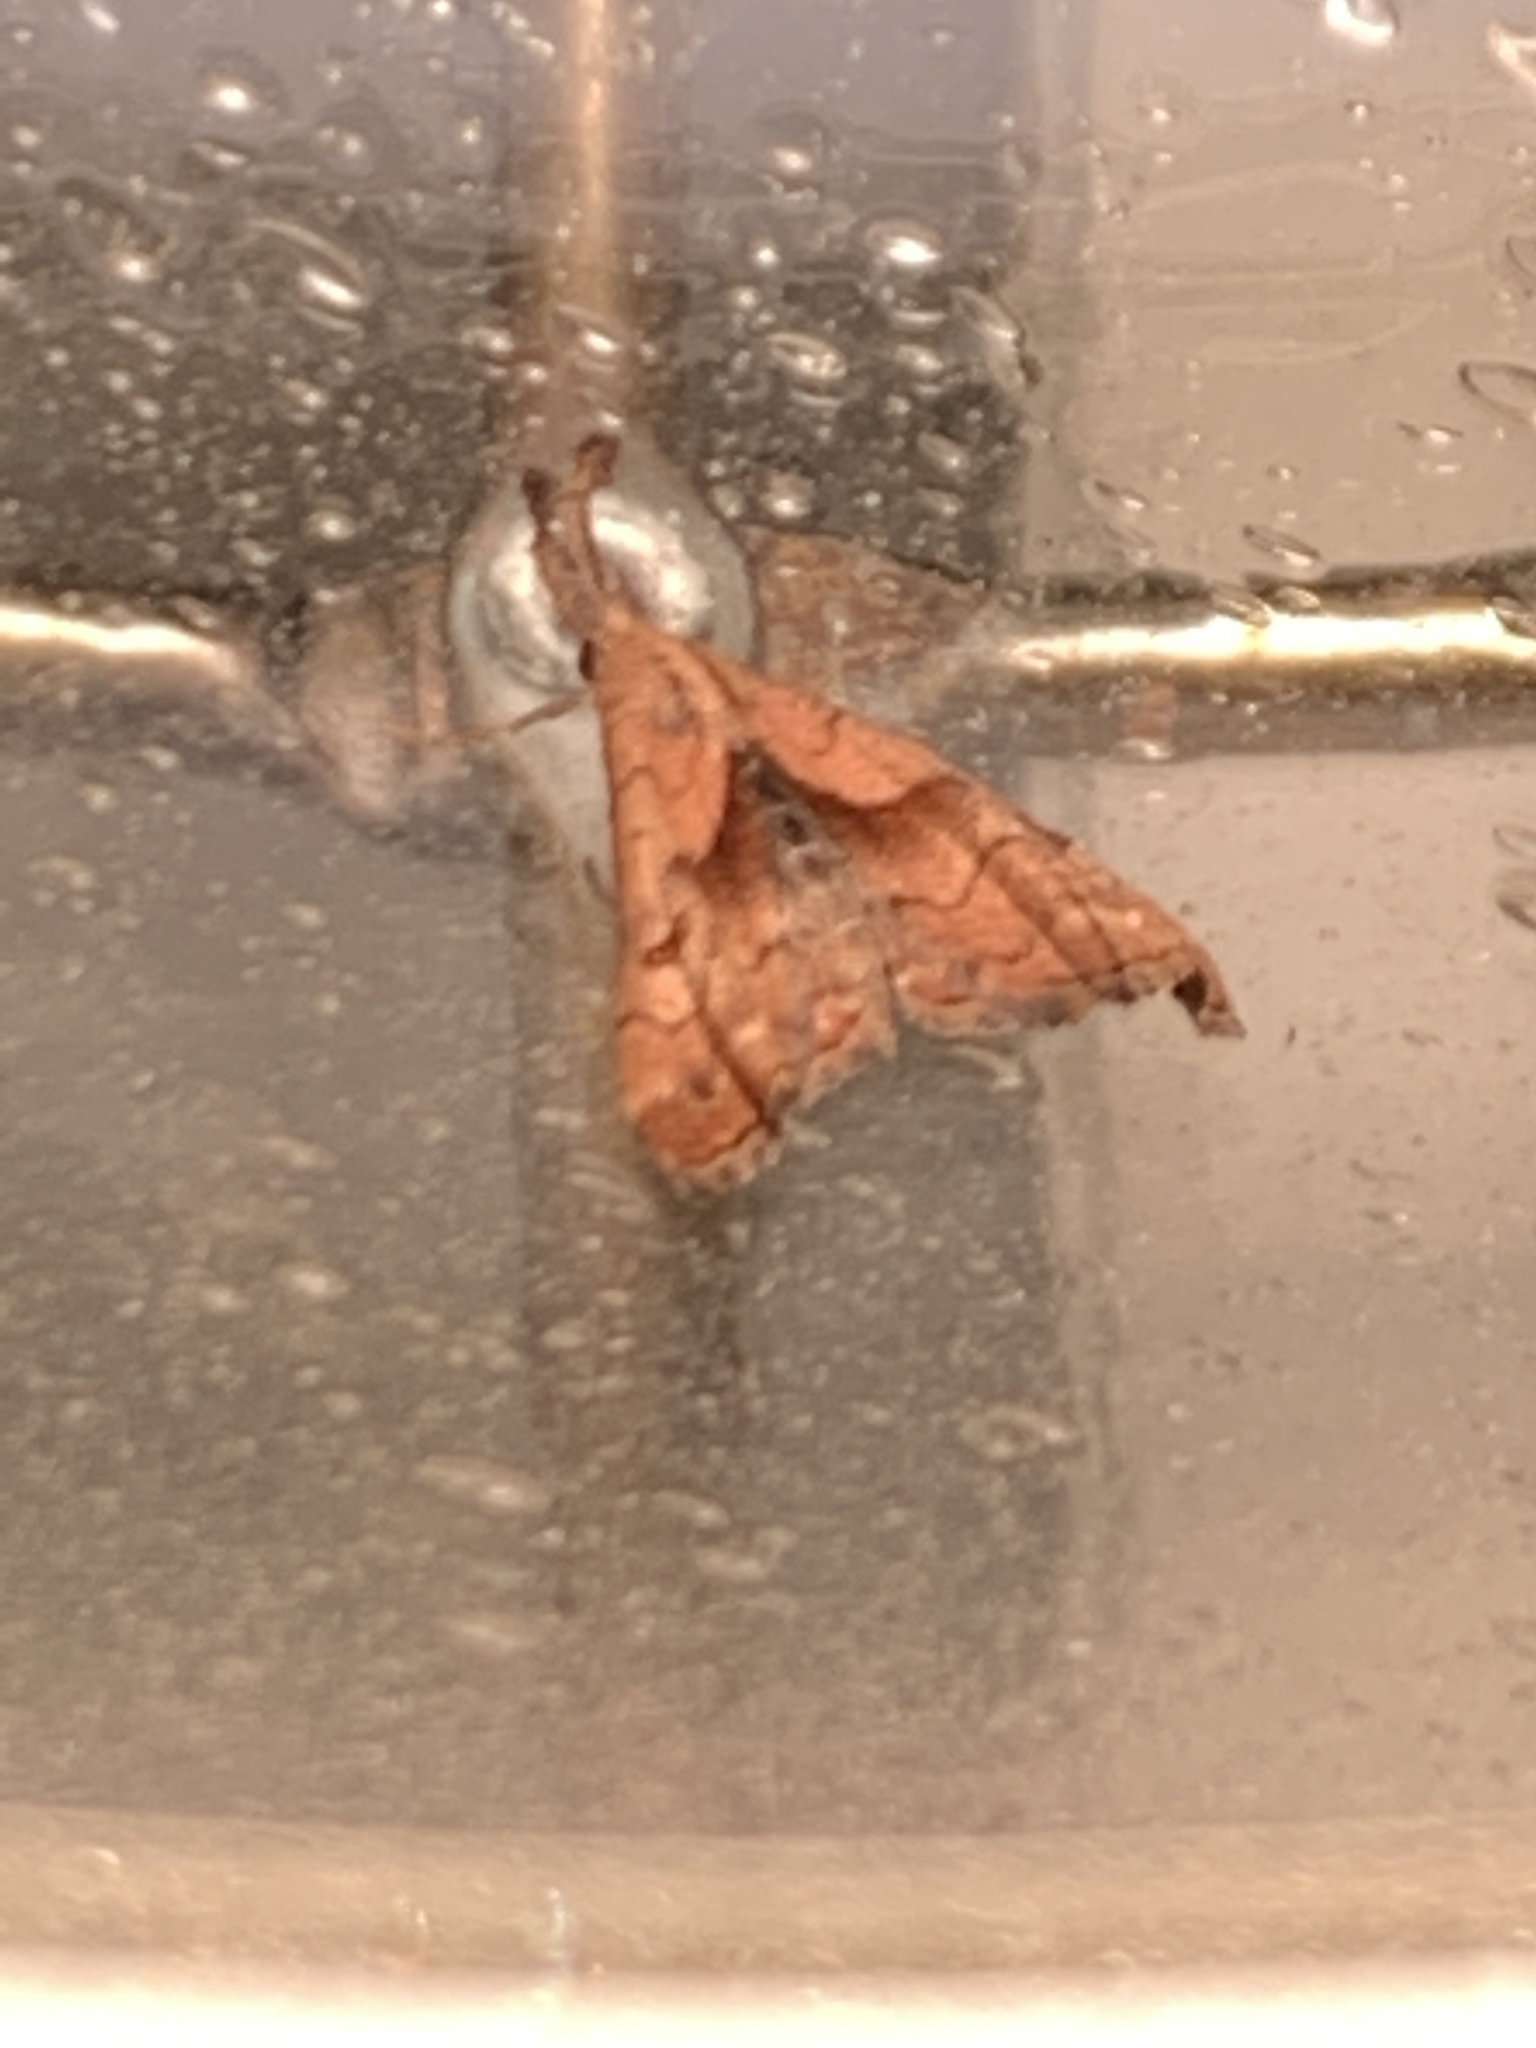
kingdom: Animalia
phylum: Arthropoda
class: Insecta
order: Lepidoptera
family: Erebidae
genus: Palthis
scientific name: Palthis angulalis
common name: Dark-spotted palthis moth
